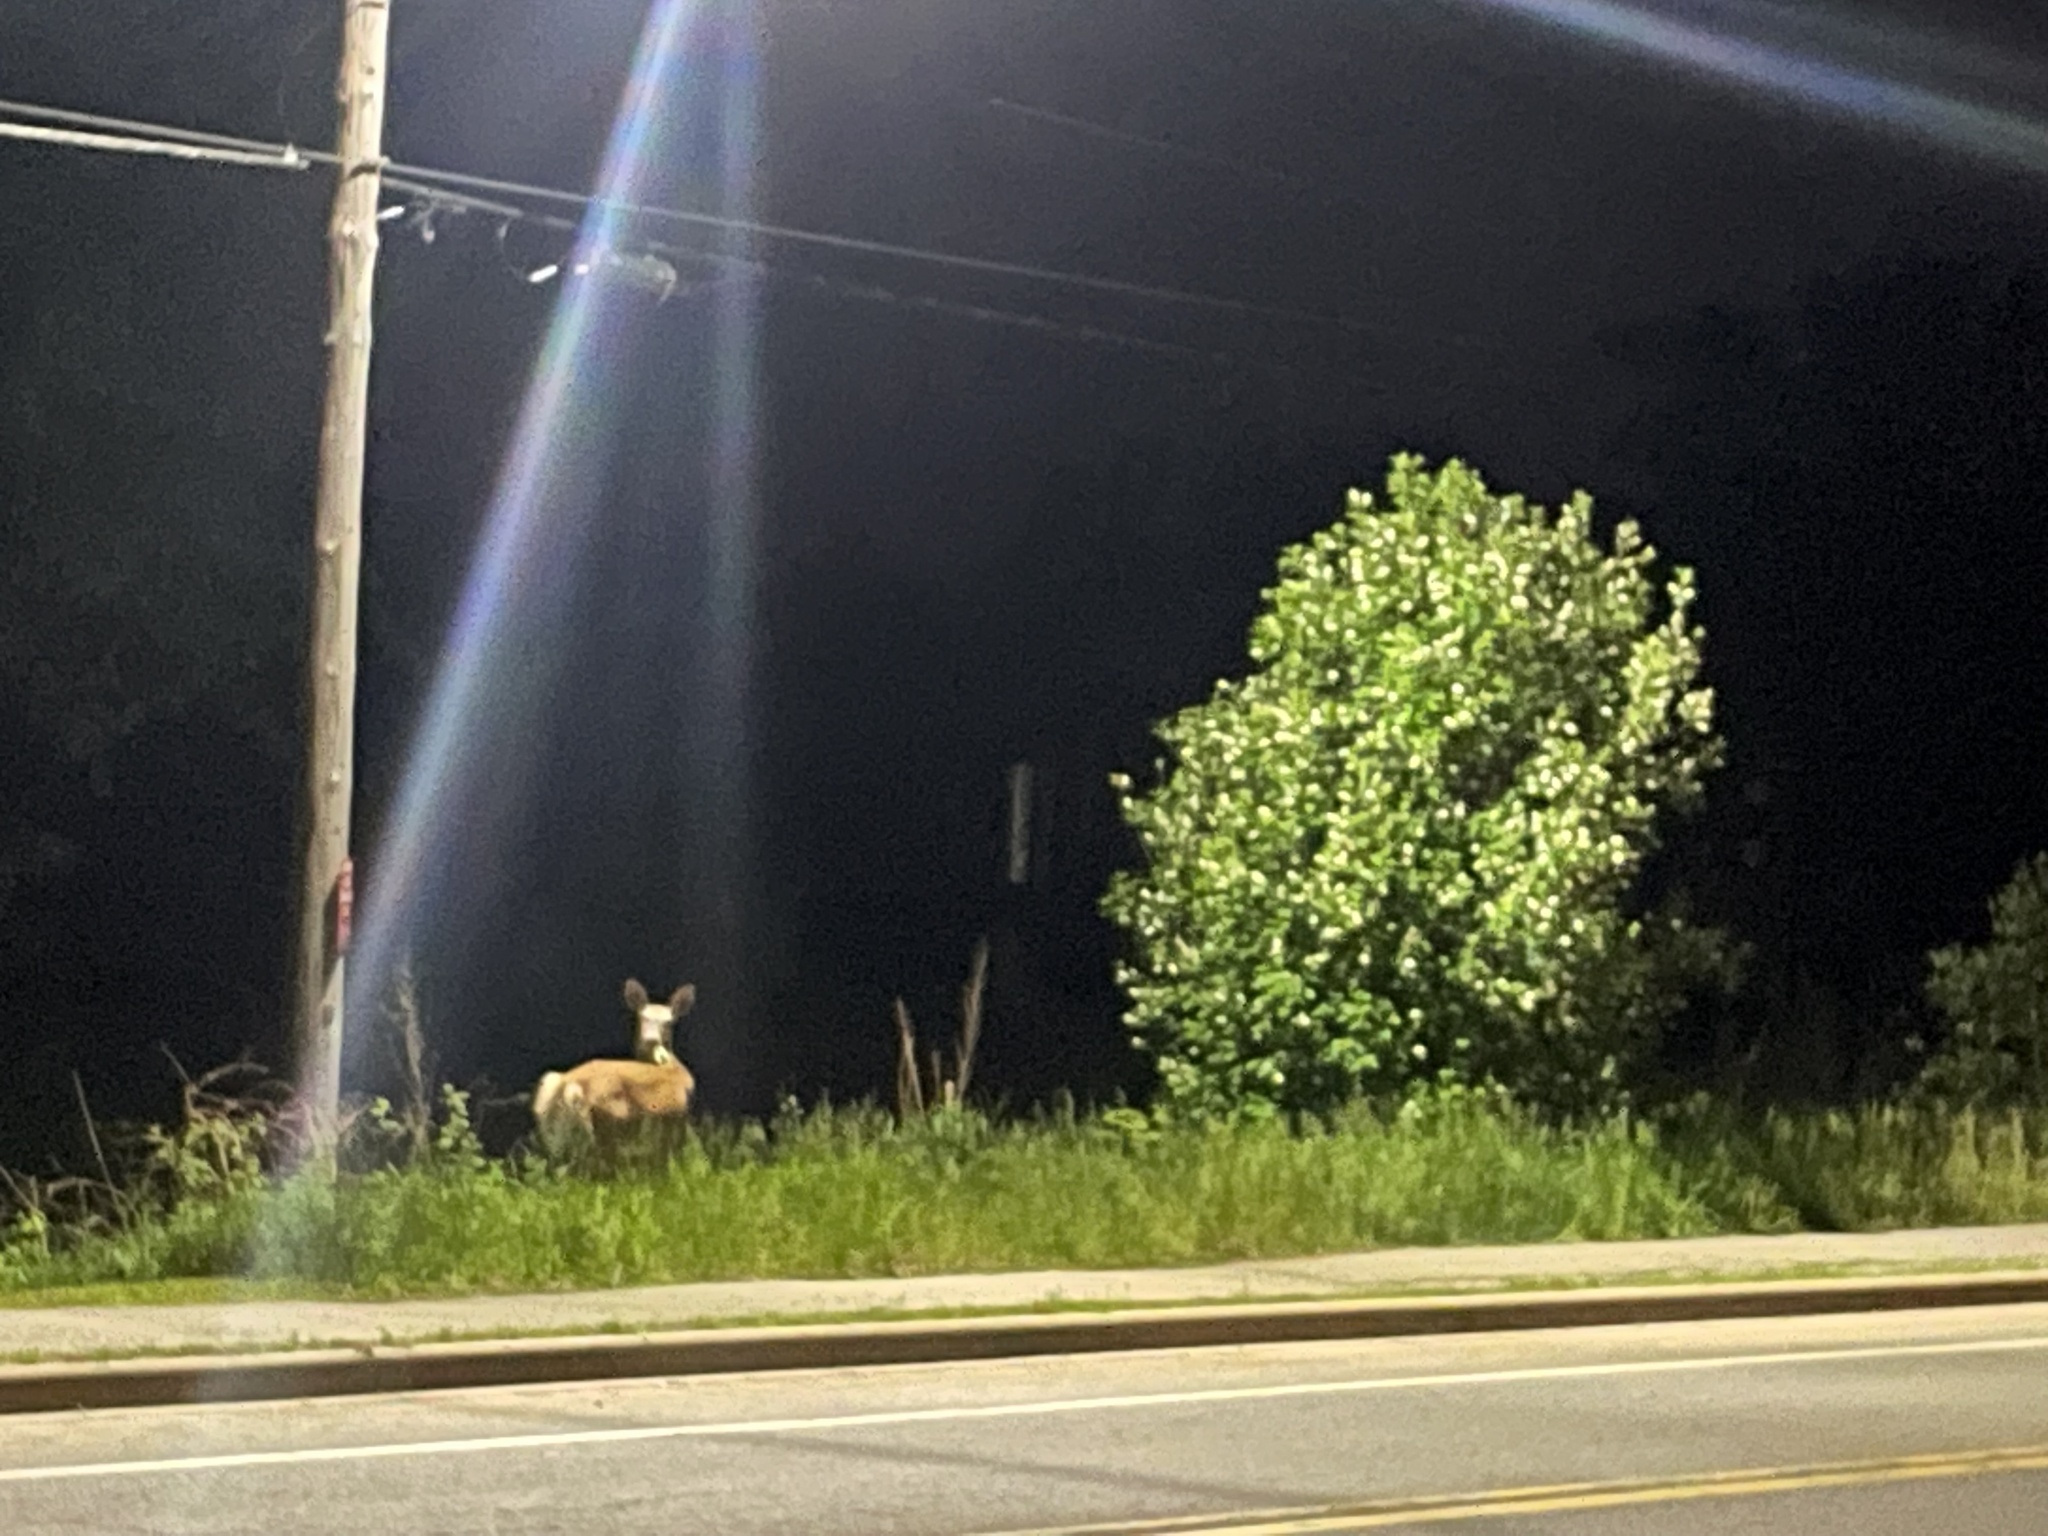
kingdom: Animalia
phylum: Chordata
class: Mammalia
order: Artiodactyla
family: Cervidae
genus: Odocoileus
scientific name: Odocoileus virginianus
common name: White-tailed deer
